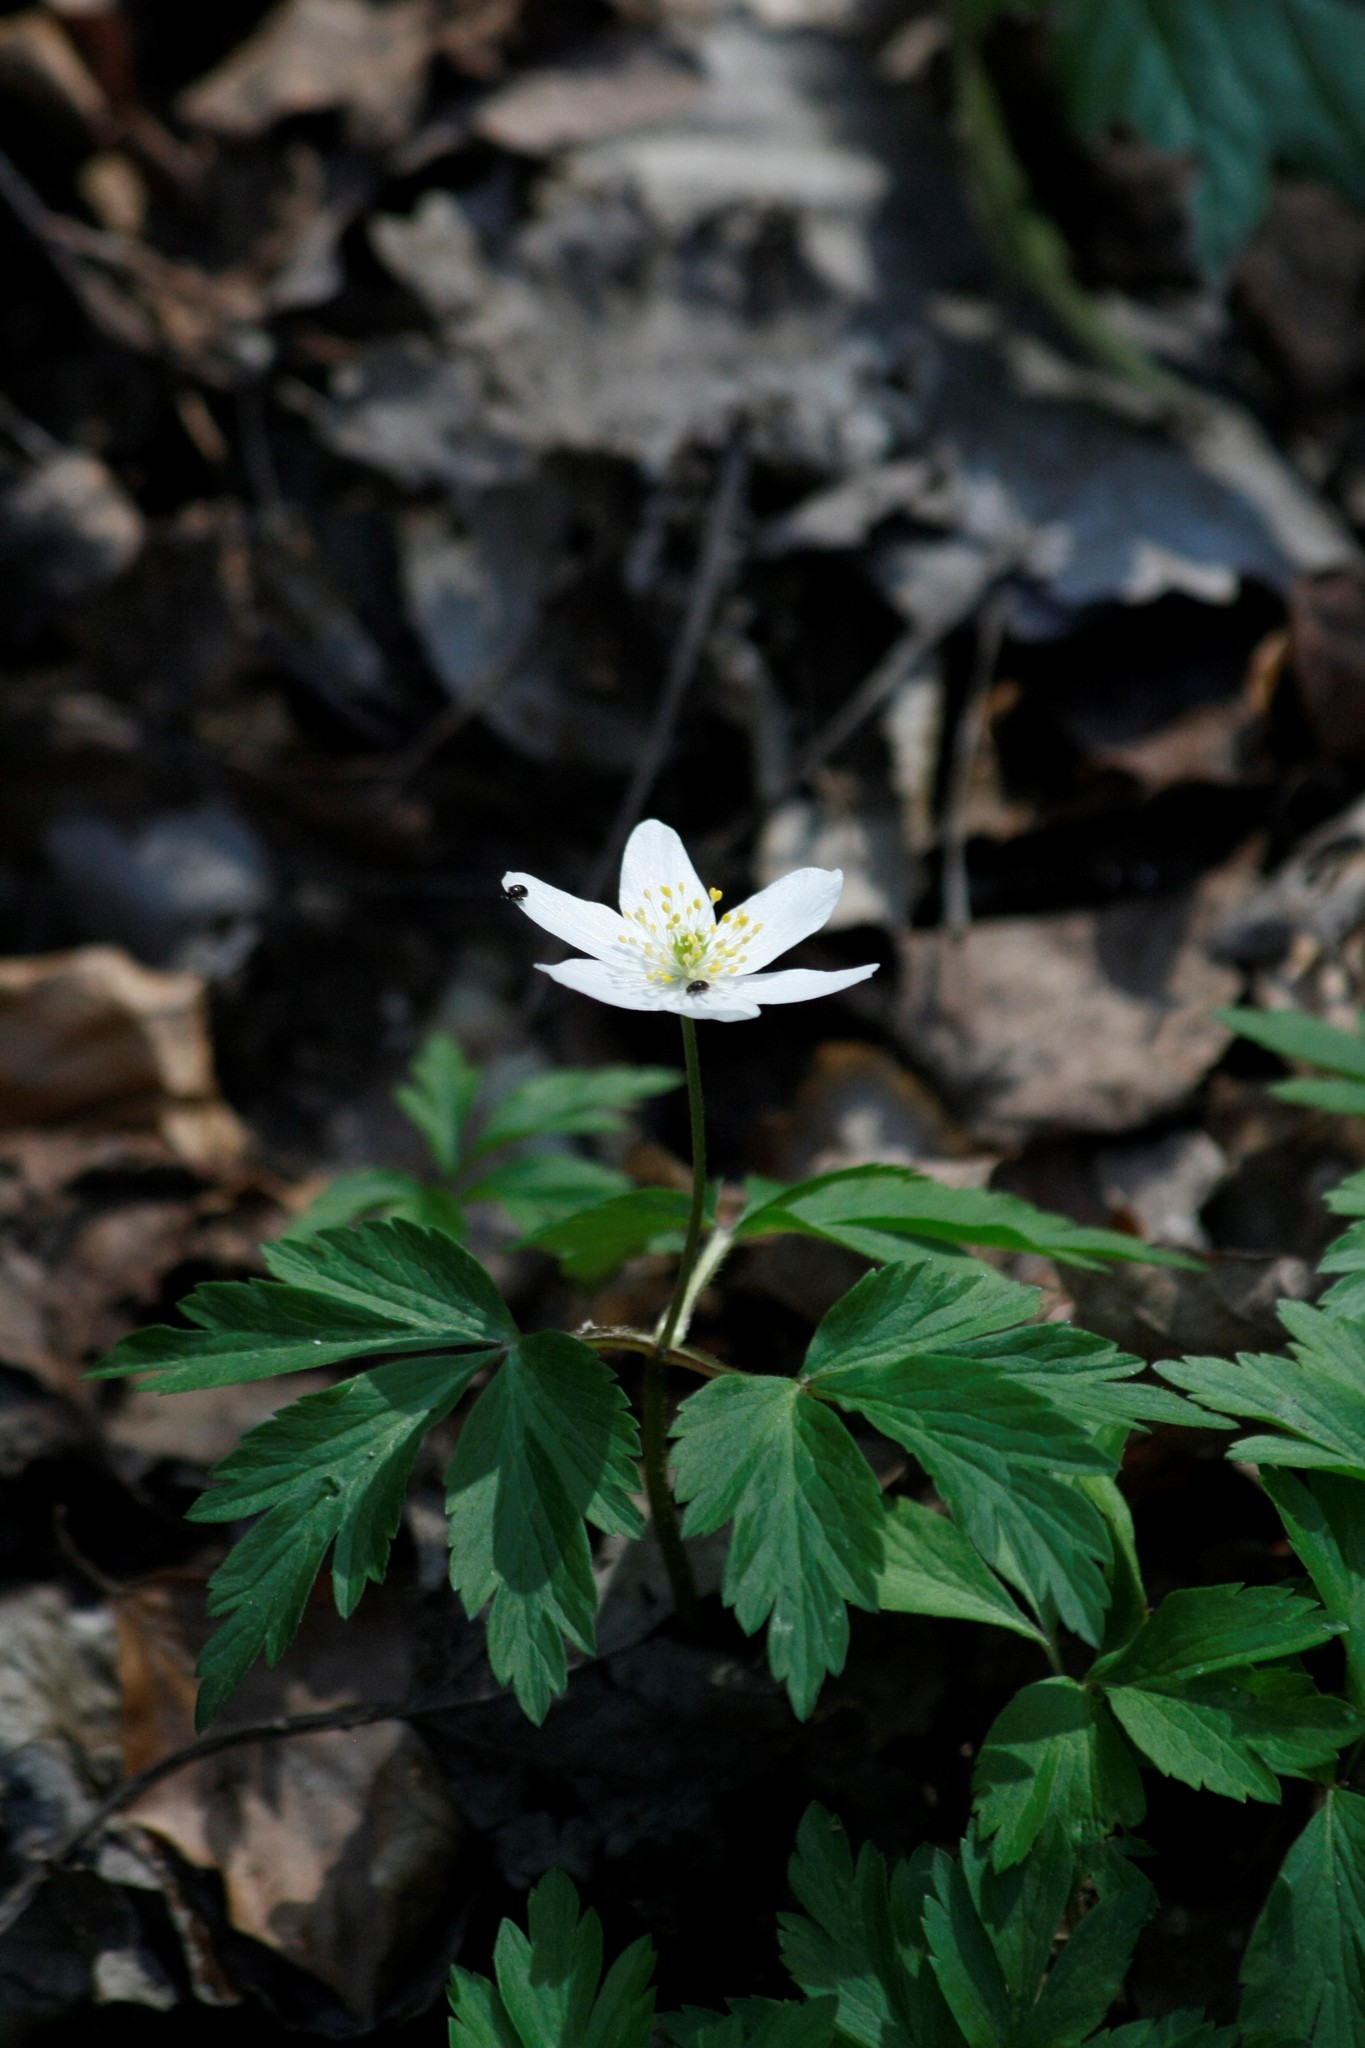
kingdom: Plantae
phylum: Tracheophyta
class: Magnoliopsida
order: Ranunculales
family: Ranunculaceae
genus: Anemone
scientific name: Anemone nemorosa
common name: Wood anemone
